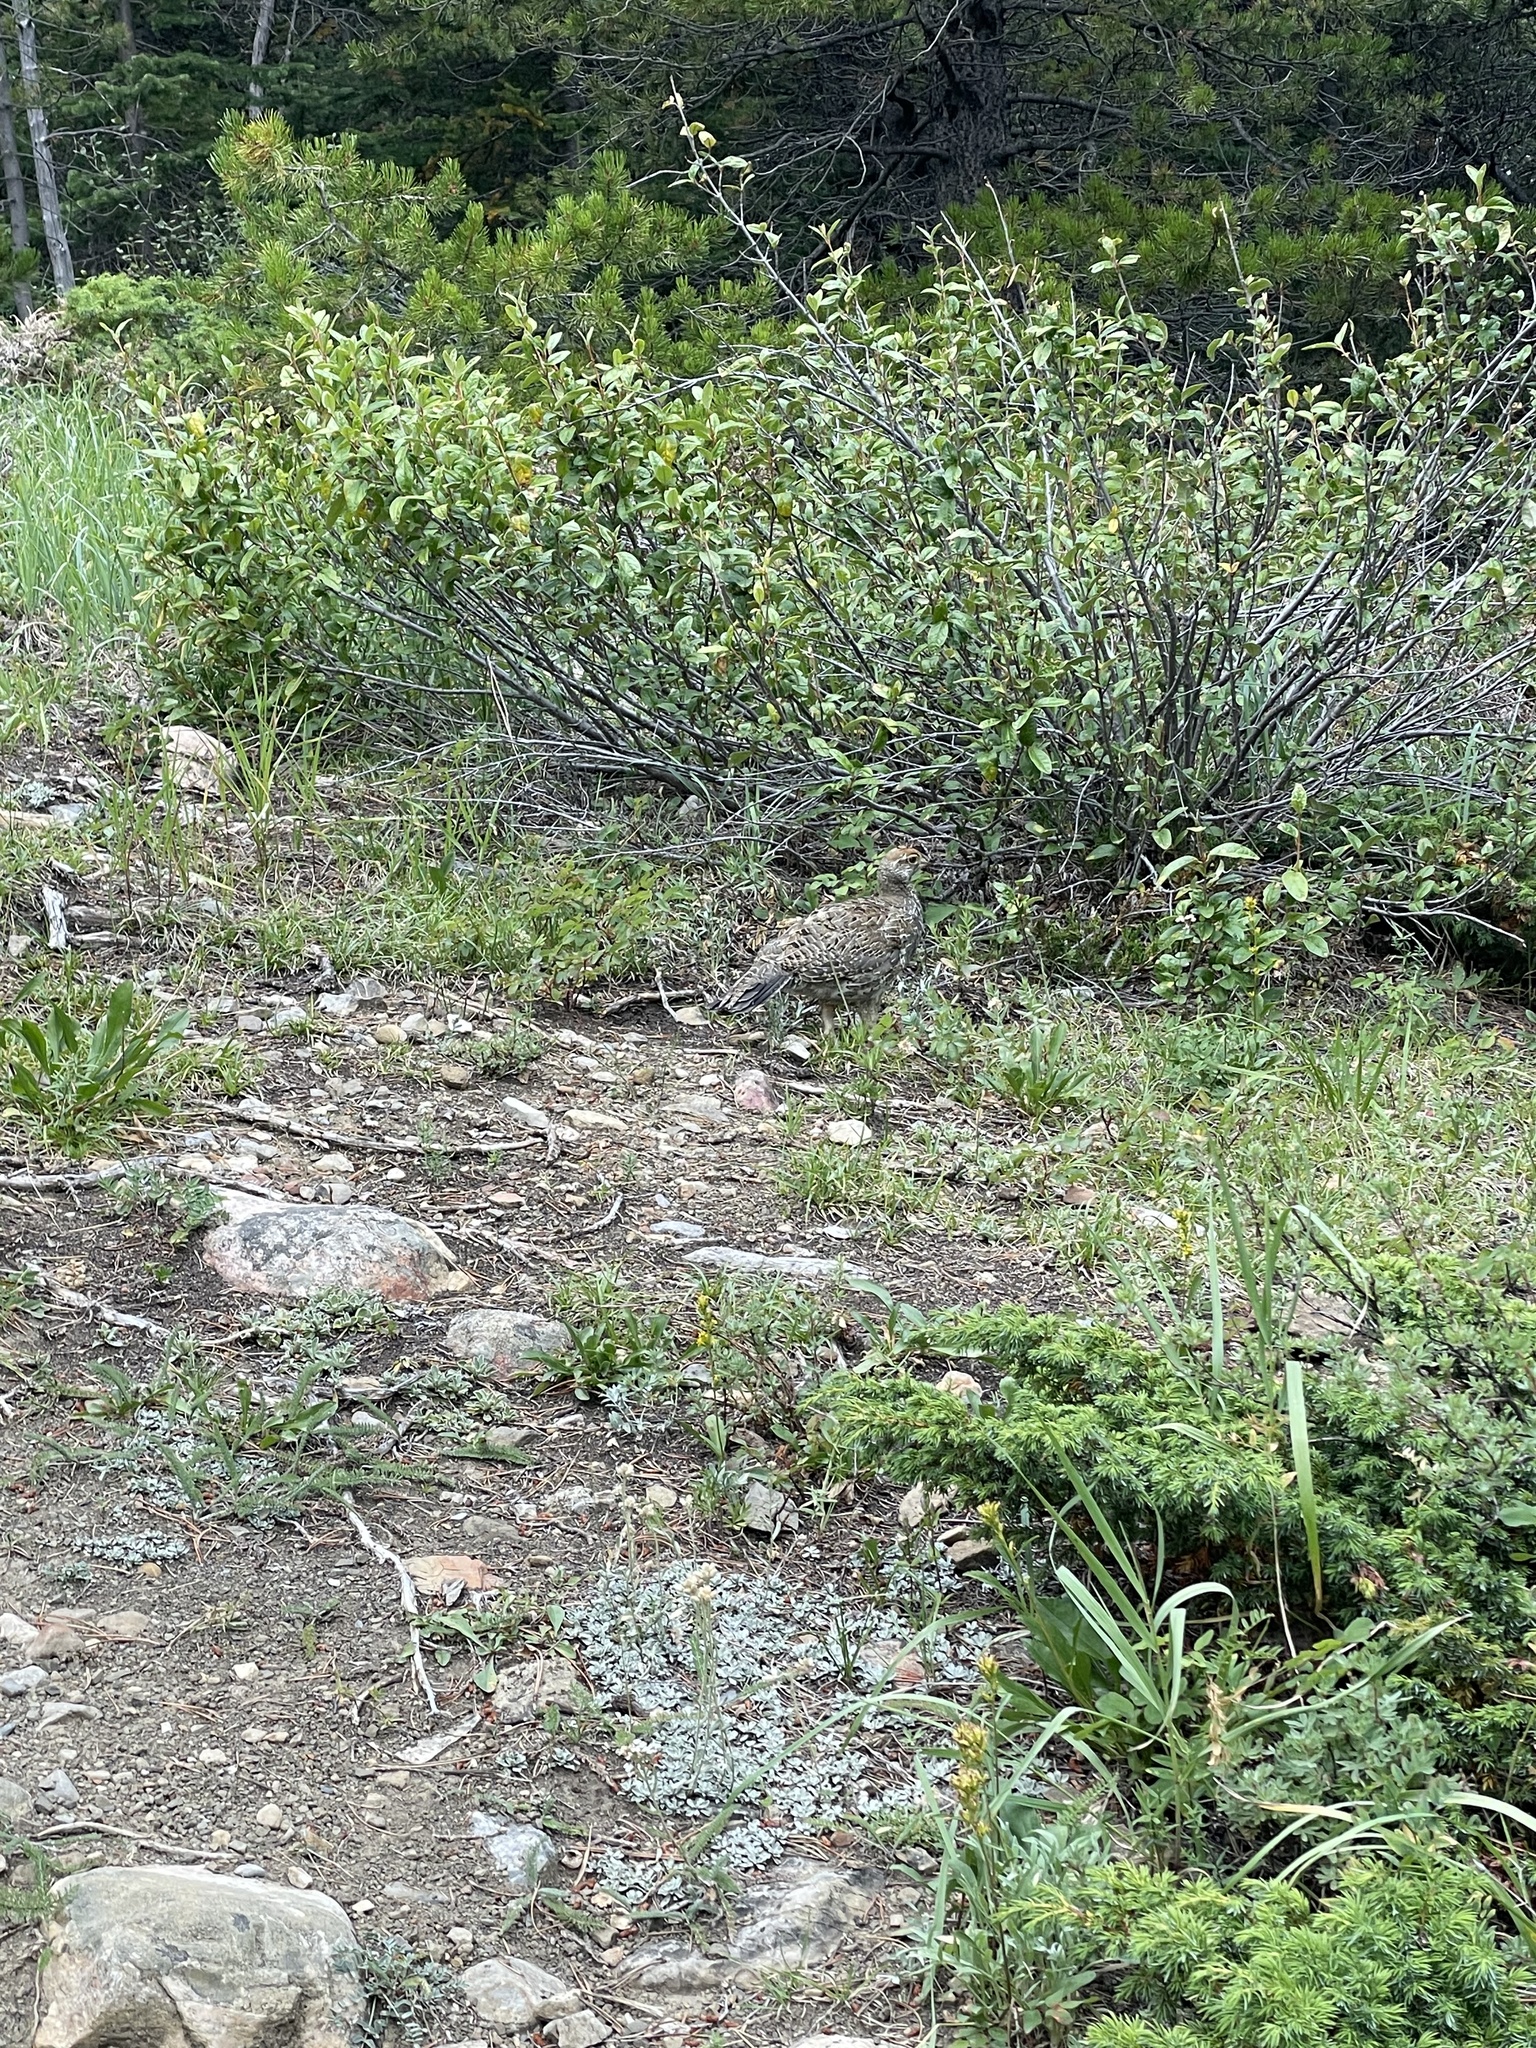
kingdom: Animalia
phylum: Chordata
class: Aves
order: Galliformes
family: Phasianidae
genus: Dendragapus
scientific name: Dendragapus obscurus
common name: Dusky grouse
